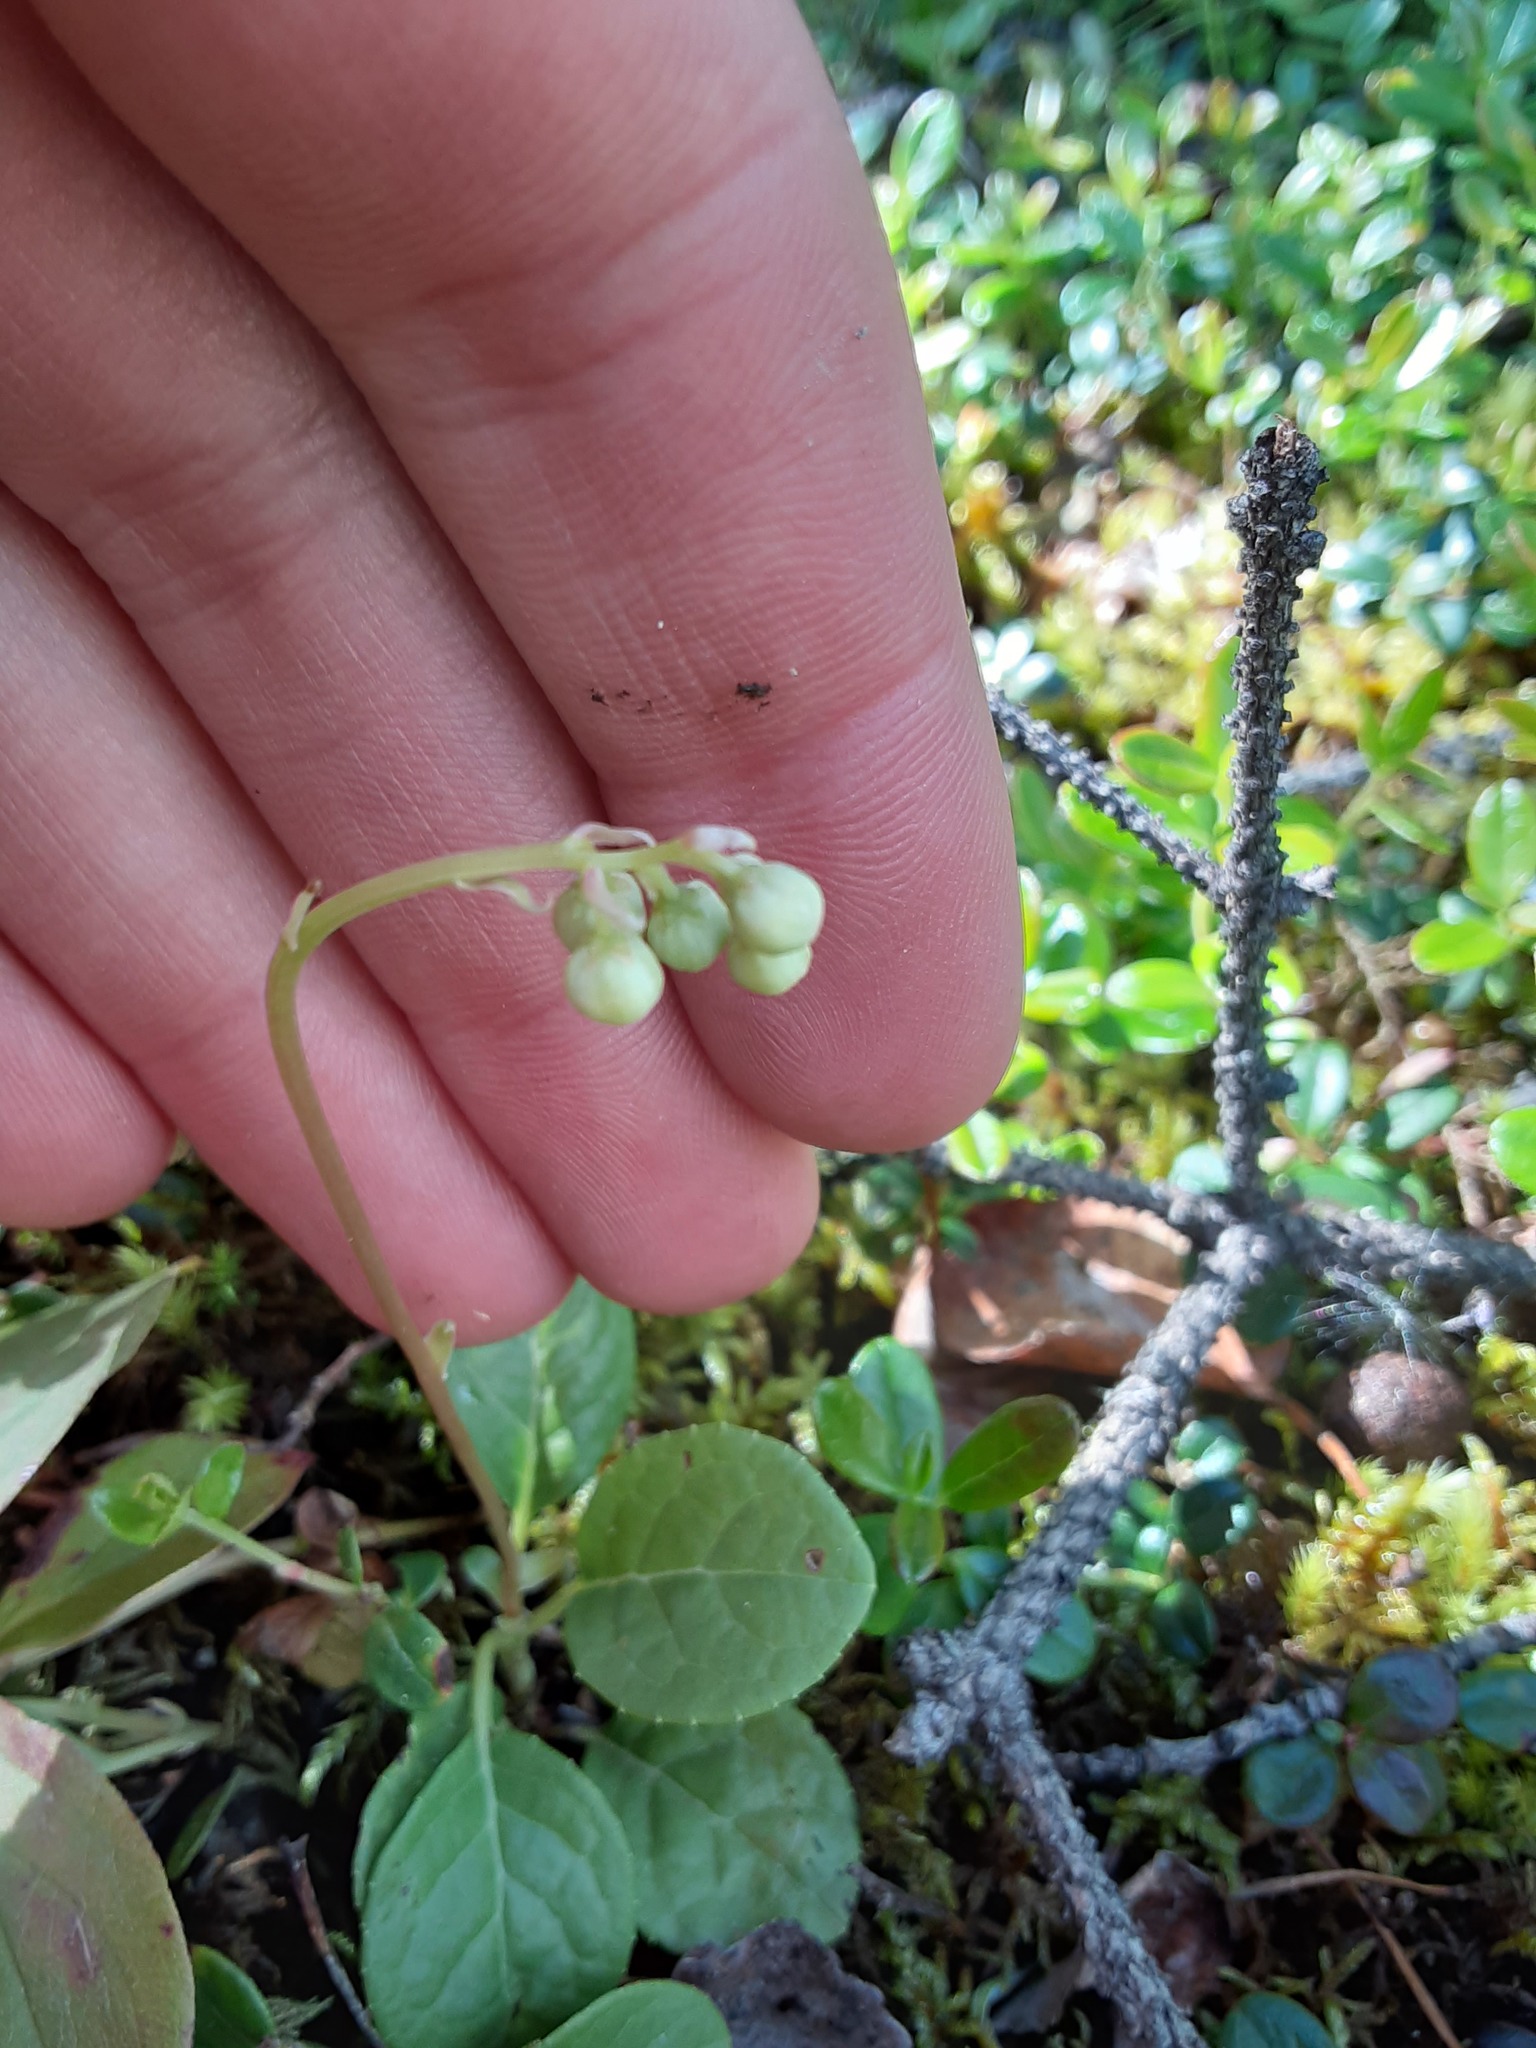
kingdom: Plantae
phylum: Tracheophyta
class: Magnoliopsida
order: Ericales
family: Ericaceae
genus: Orthilia
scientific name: Orthilia secunda
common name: One-sided orthilia
